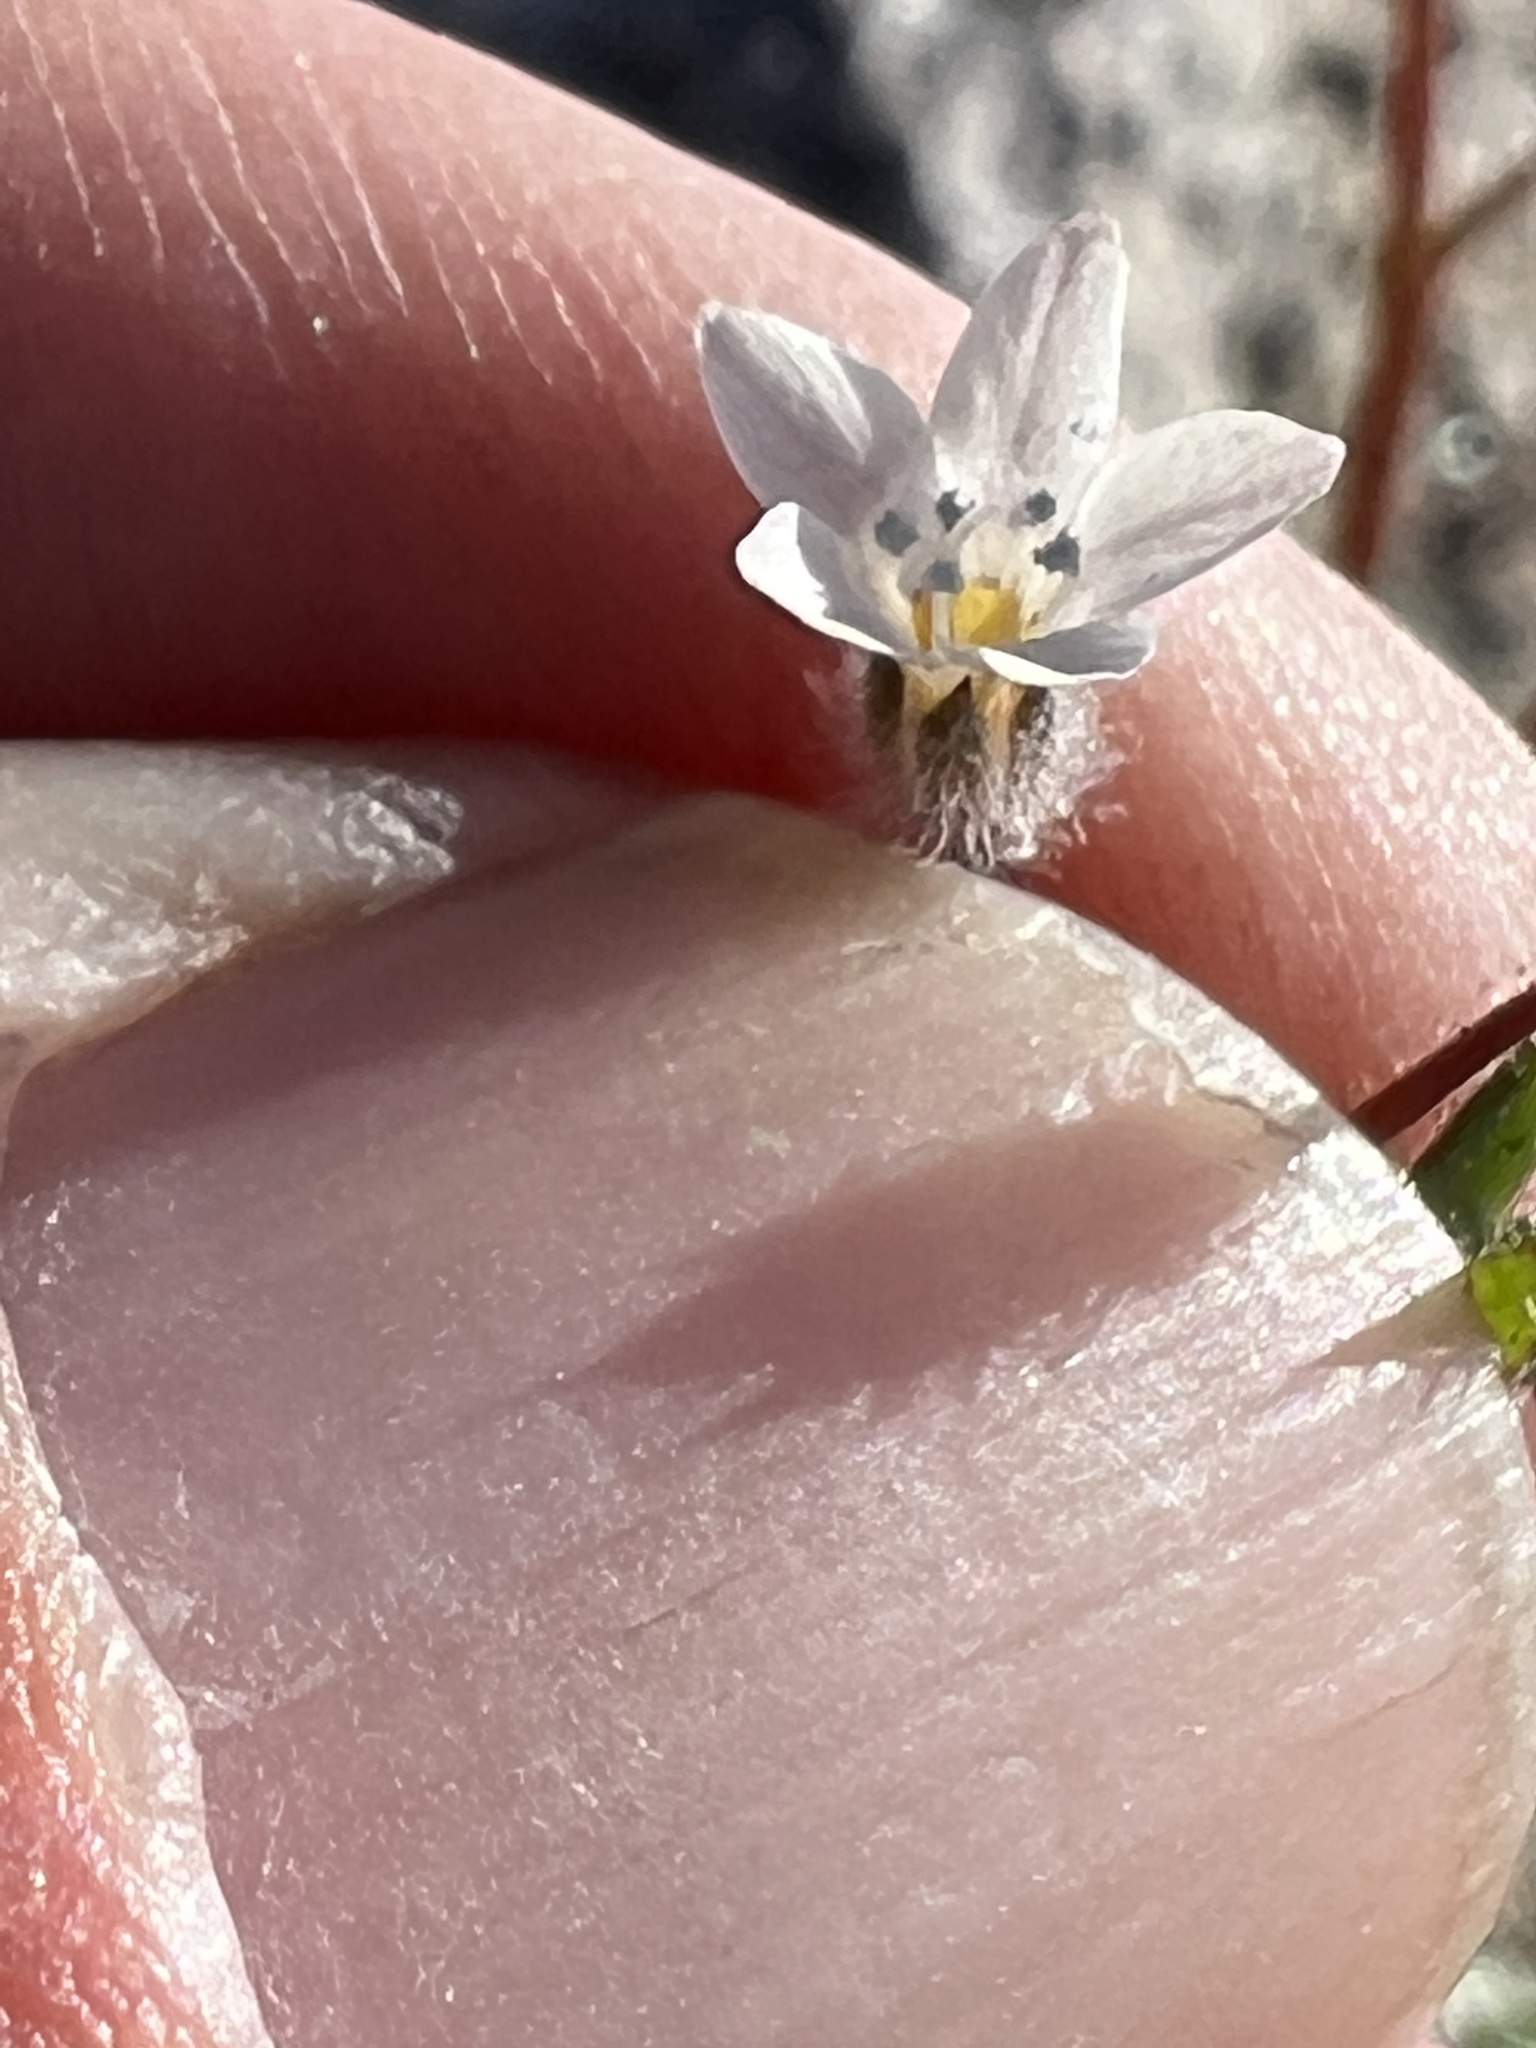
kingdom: Plantae
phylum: Tracheophyta
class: Magnoliopsida
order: Ericales
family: Polemoniaceae
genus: Gilia
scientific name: Gilia stellata
